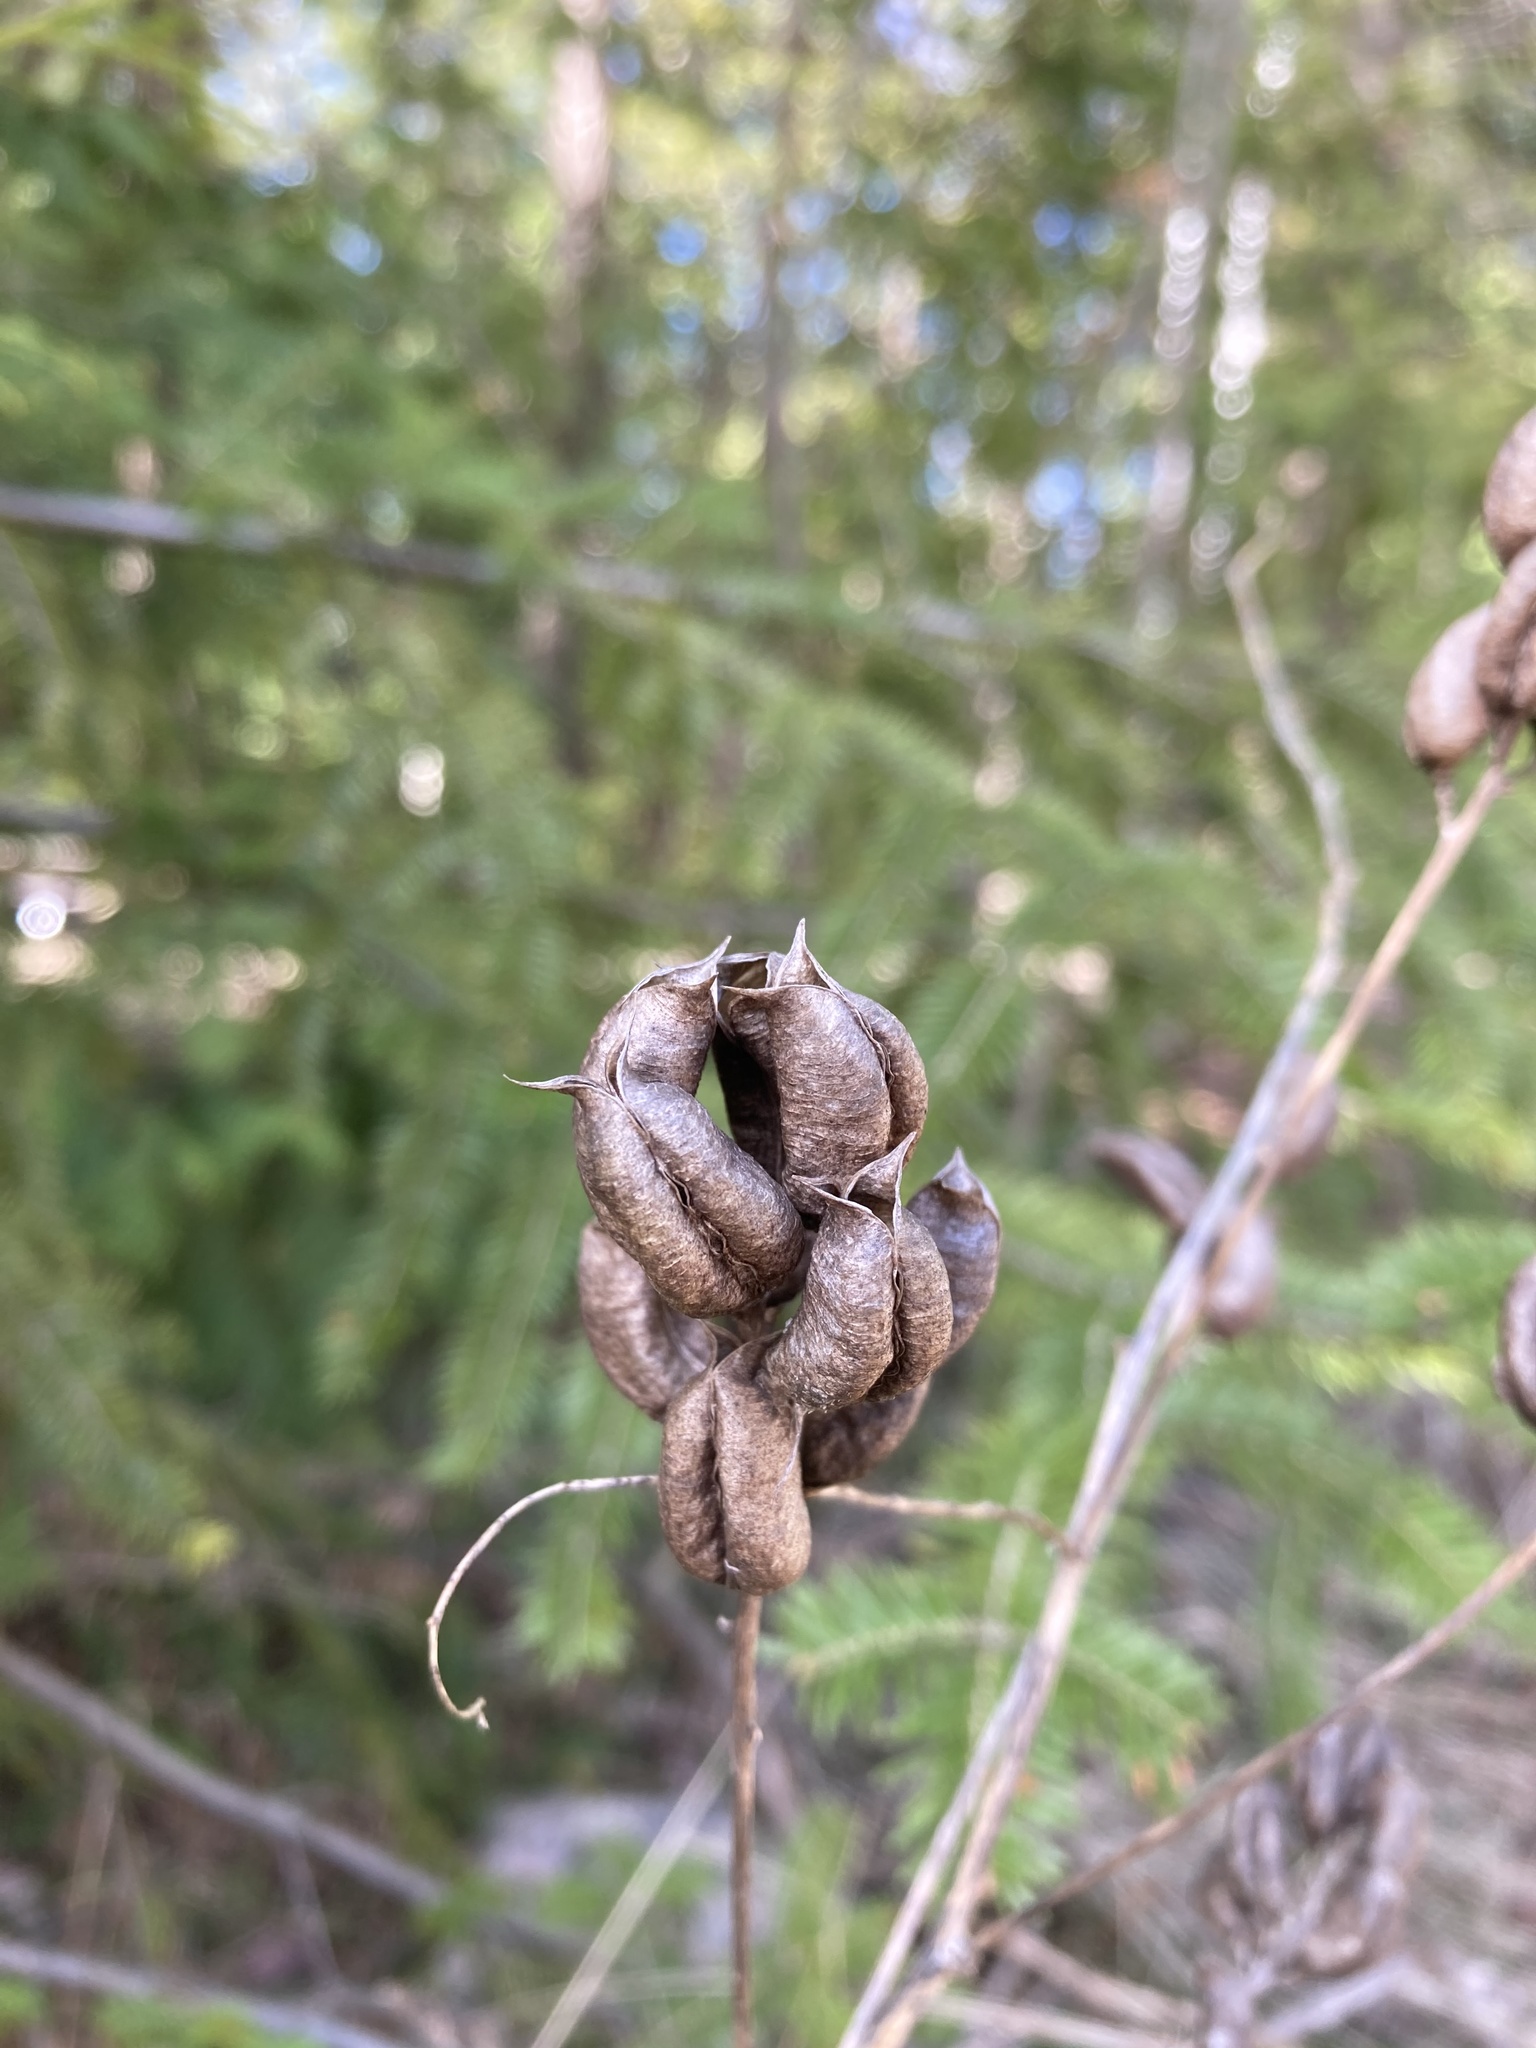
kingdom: Plantae
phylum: Tracheophyta
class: Magnoliopsida
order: Fabales
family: Fabaceae
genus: Astragalus
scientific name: Astragalus neglectus
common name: Cooper's milk-vetch
